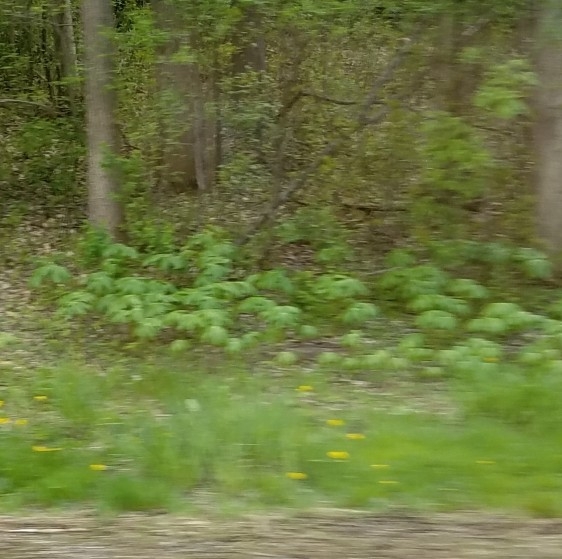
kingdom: Plantae
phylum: Tracheophyta
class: Magnoliopsida
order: Ranunculales
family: Berberidaceae
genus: Podophyllum
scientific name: Podophyllum peltatum
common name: Wild mandrake
